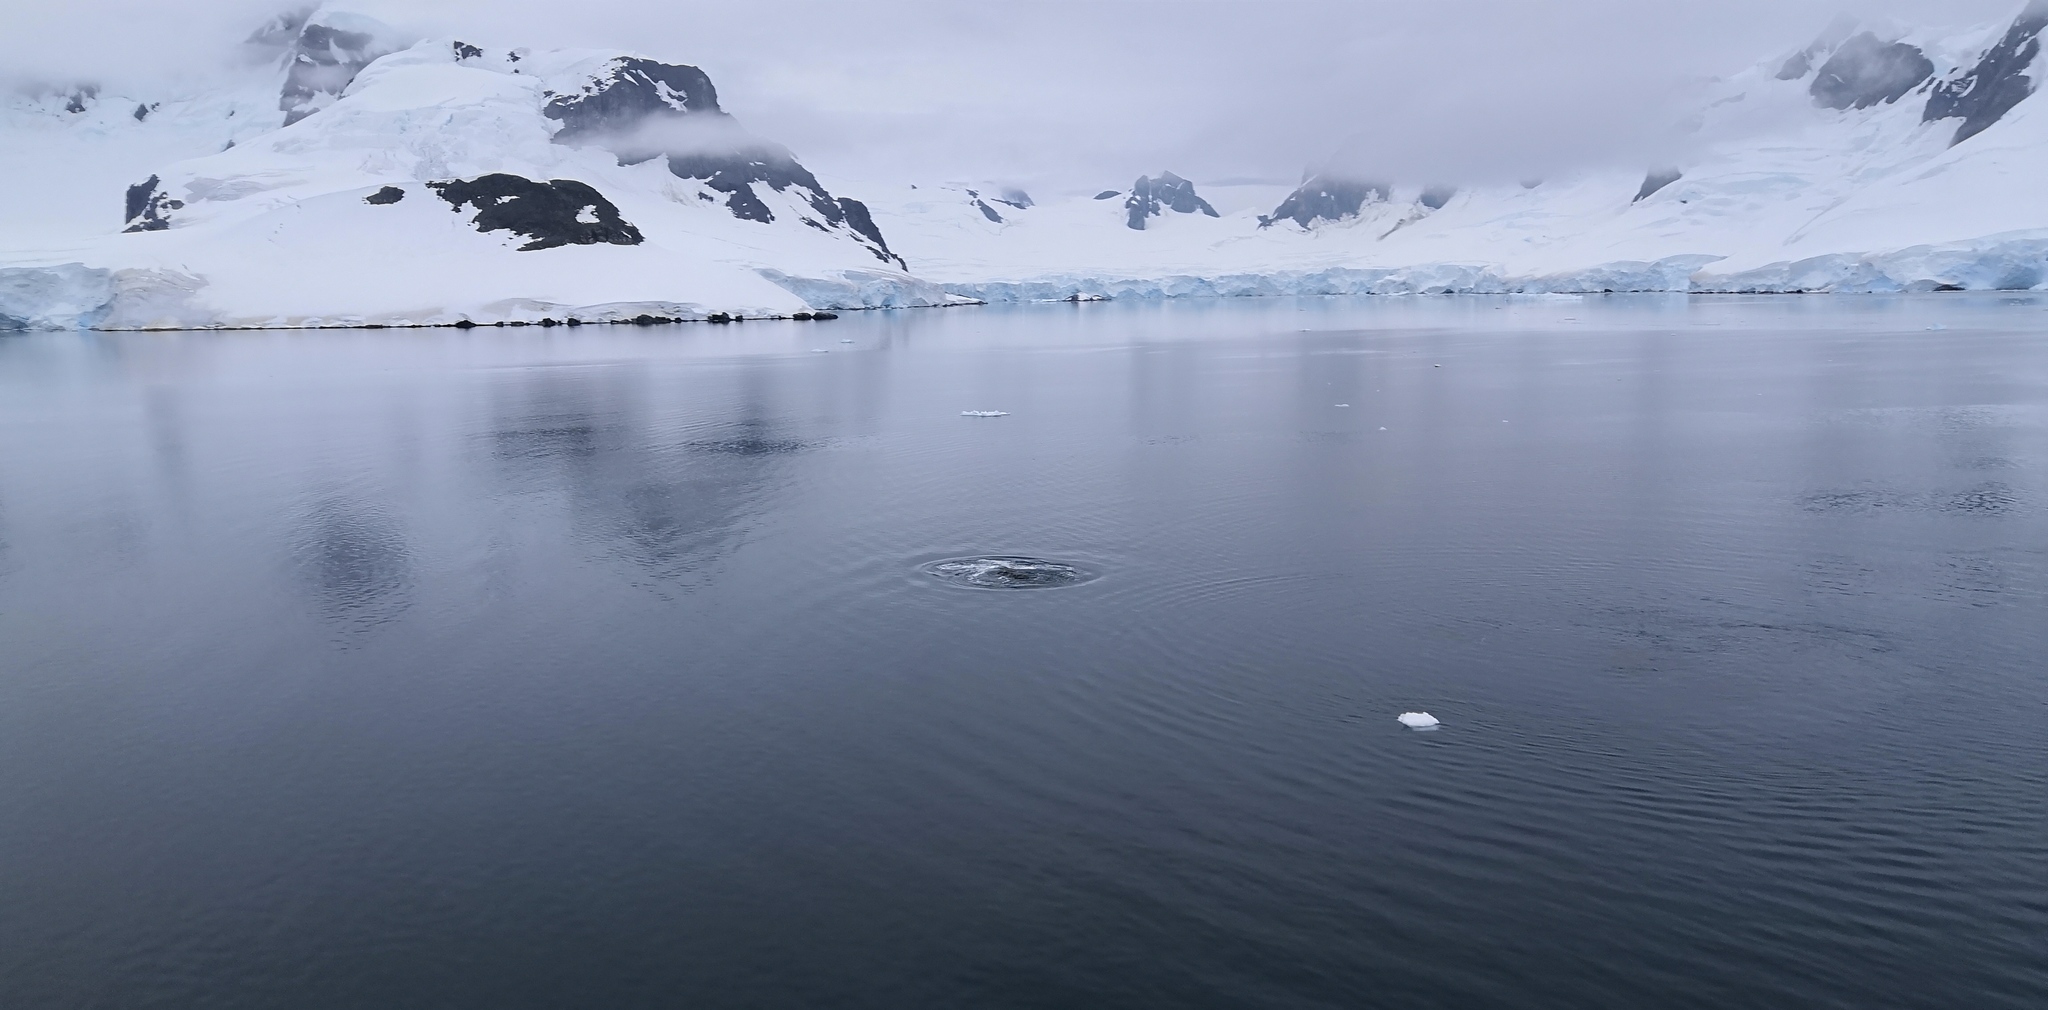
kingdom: Animalia
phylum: Chordata
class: Mammalia
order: Cetacea
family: Balaenopteridae
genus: Megaptera
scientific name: Megaptera novaeangliae
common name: Humpback whale
